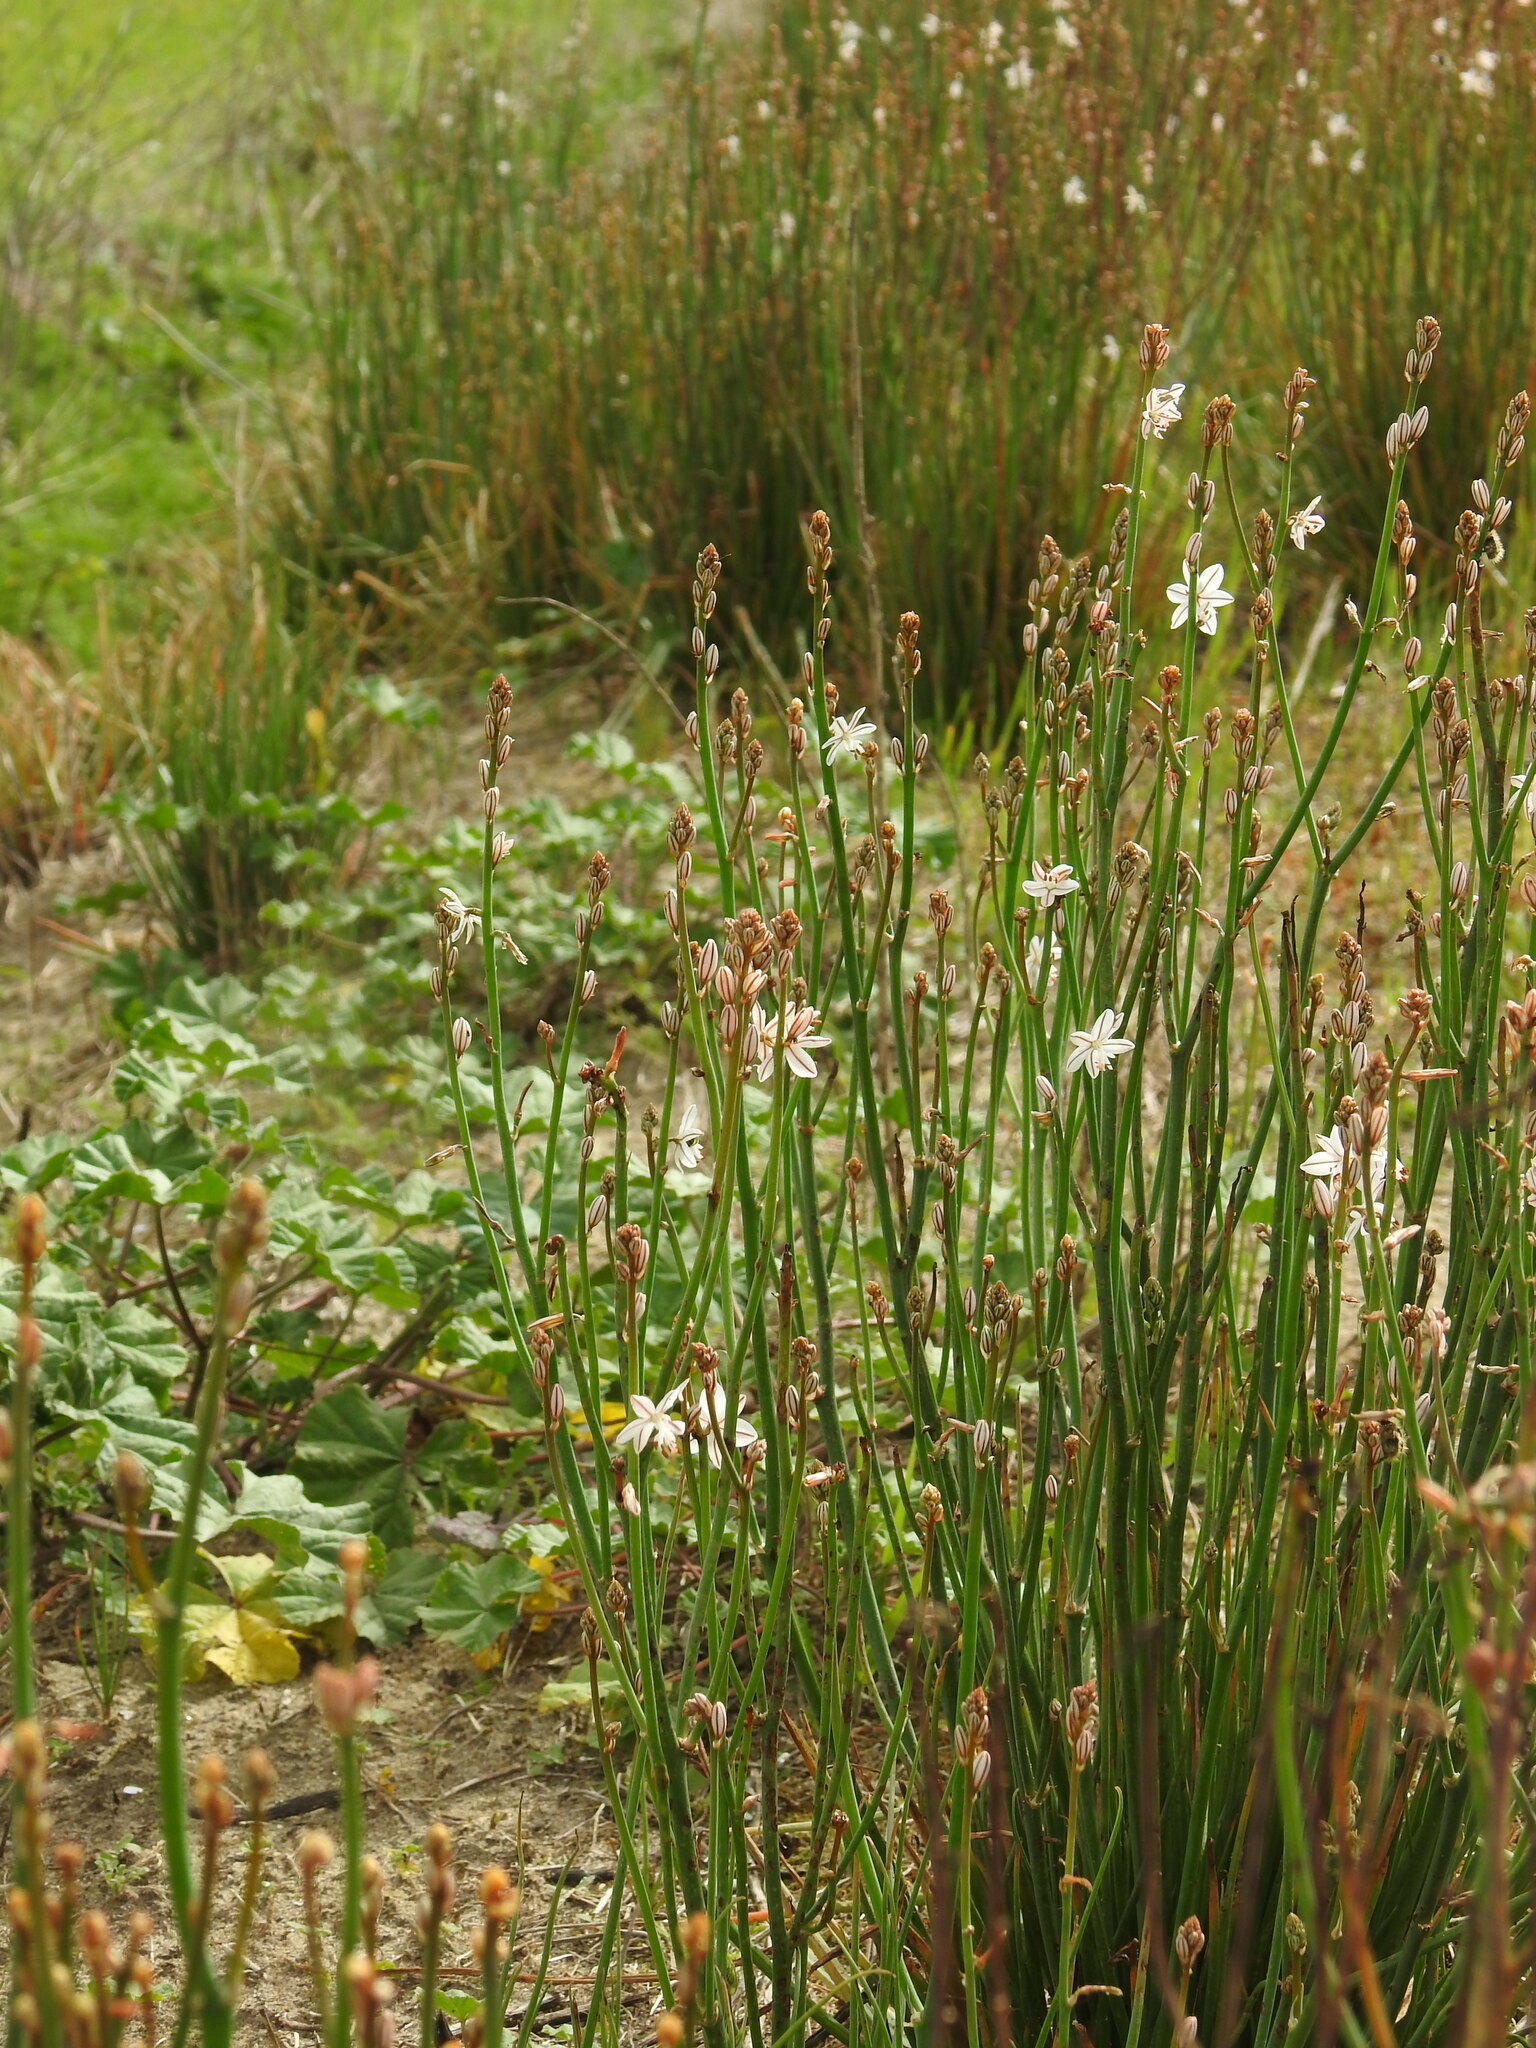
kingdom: Plantae
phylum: Tracheophyta
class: Liliopsida
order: Asparagales
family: Asphodelaceae
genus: Asphodelus
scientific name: Asphodelus fistulosus
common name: Onionweed
